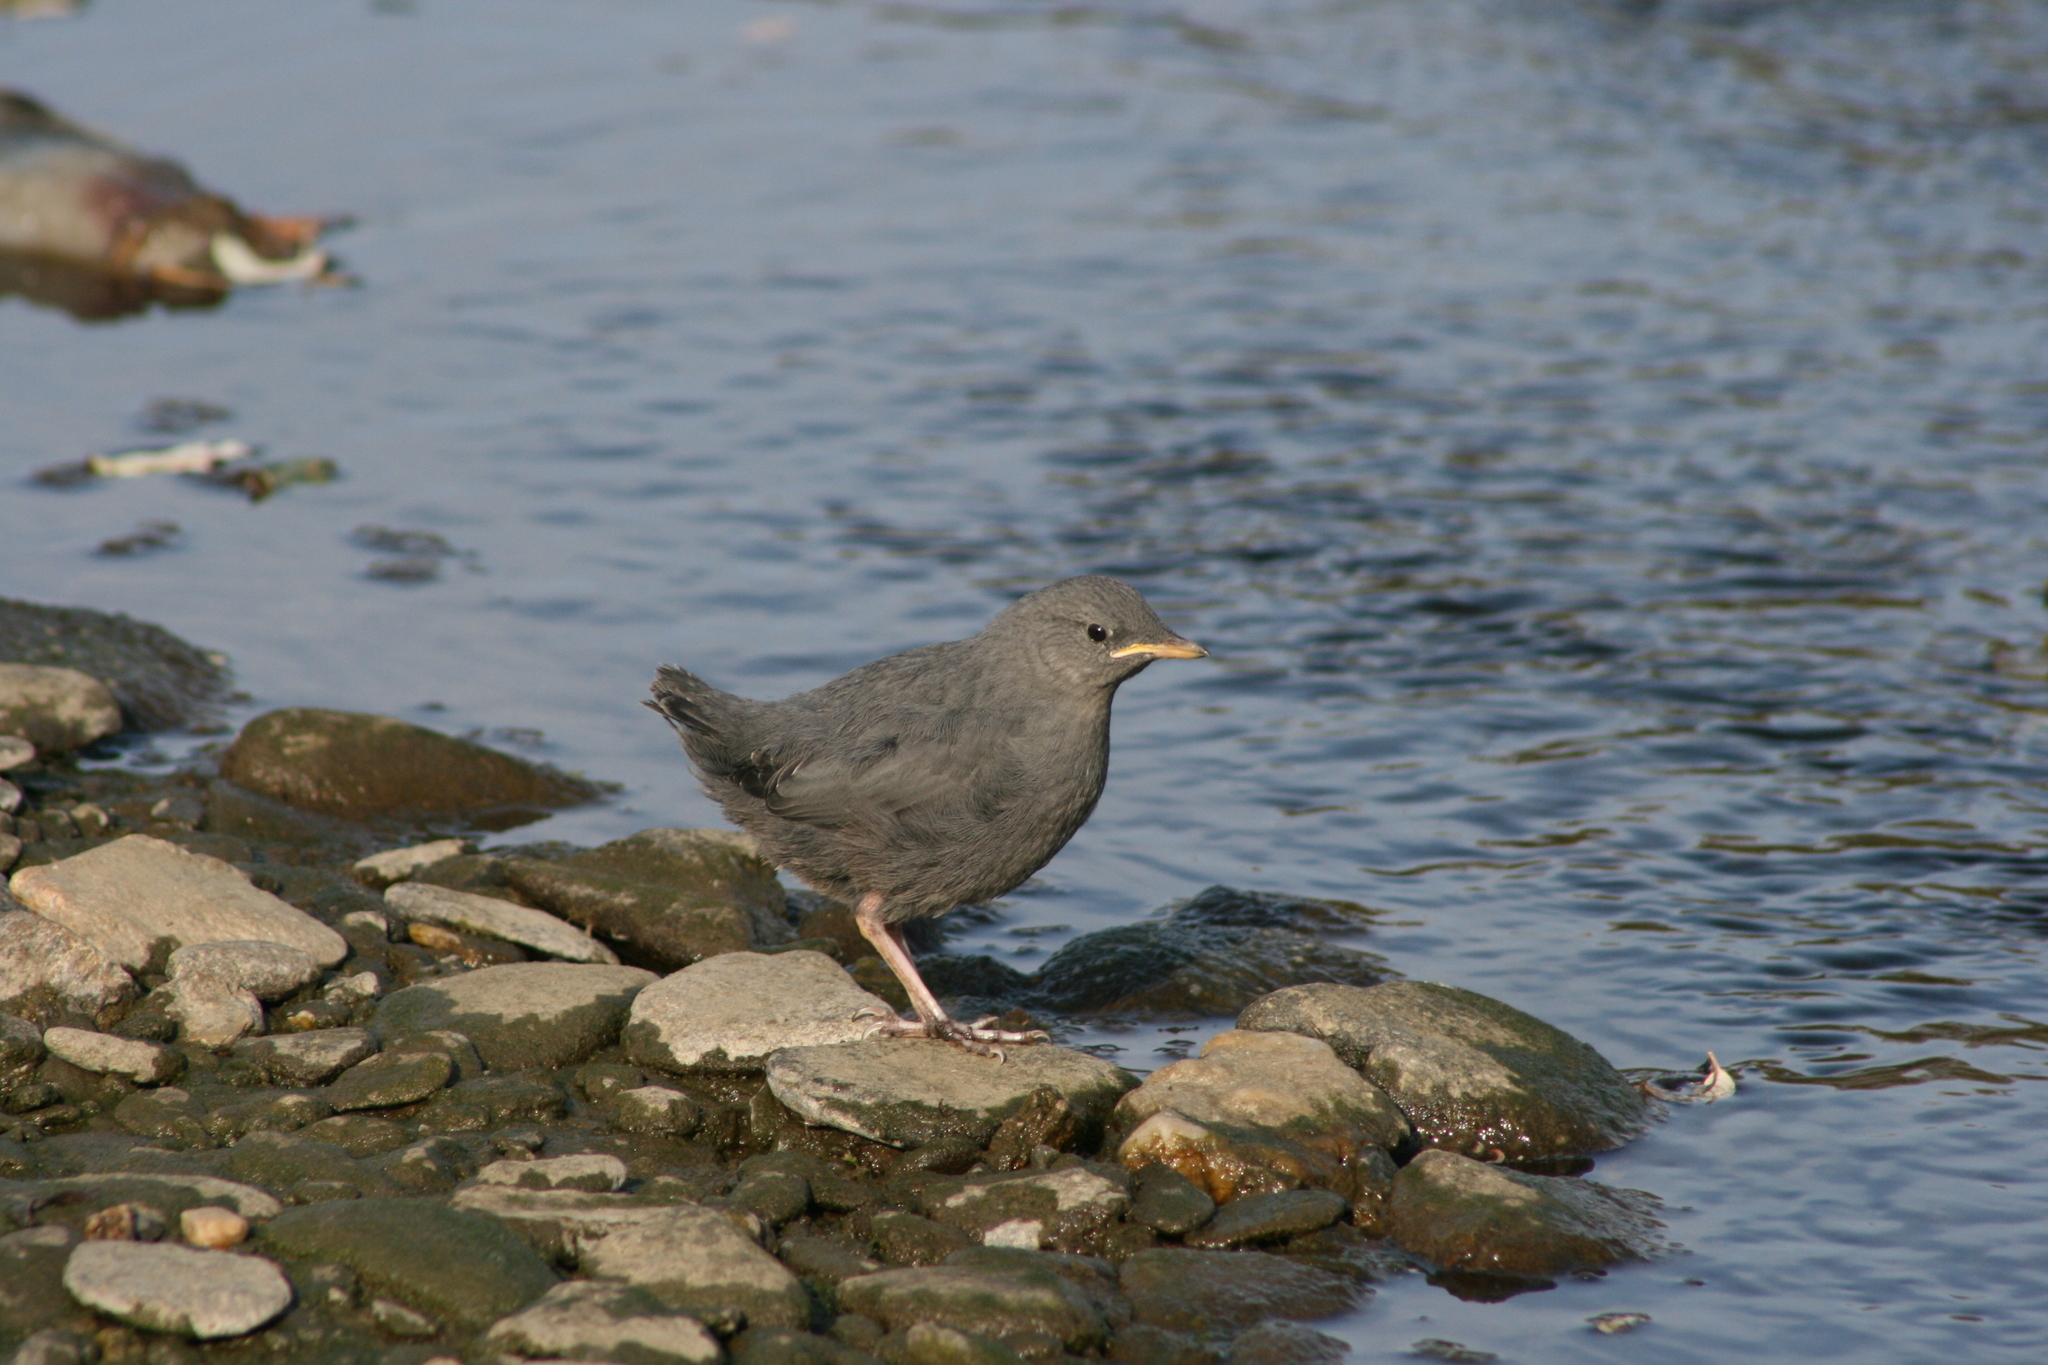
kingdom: Animalia
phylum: Chordata
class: Aves
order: Passeriformes
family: Cinclidae
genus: Cinclus
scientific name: Cinclus mexicanus
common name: American dipper
